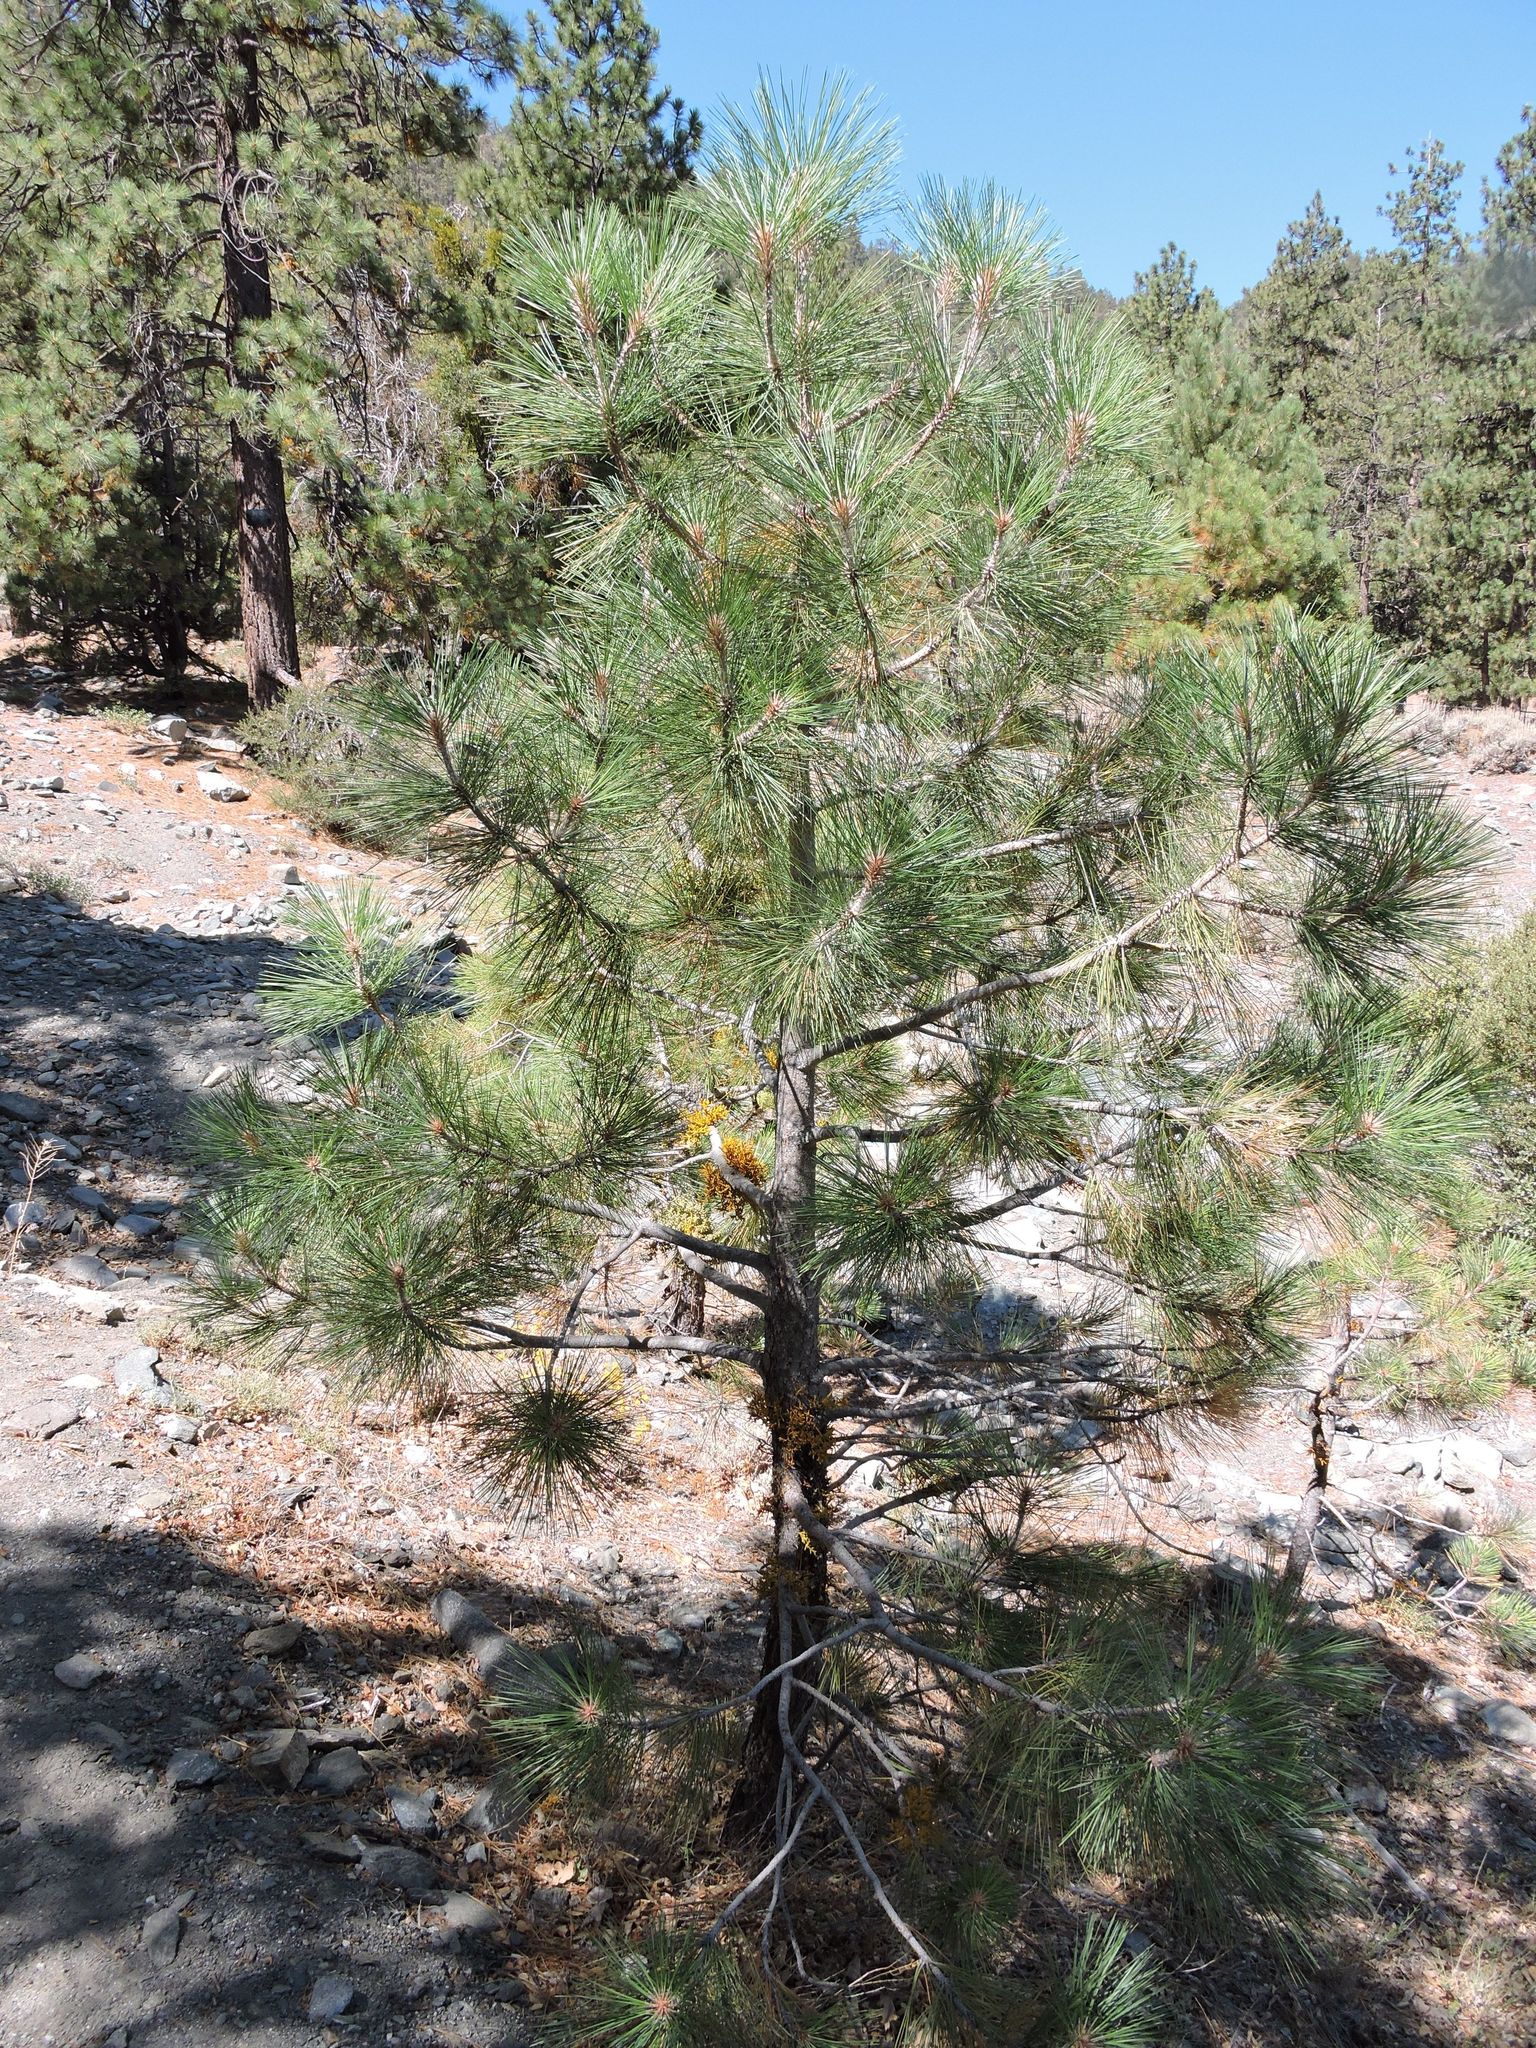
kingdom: Plantae
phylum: Tracheophyta
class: Magnoliopsida
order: Santalales
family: Viscaceae
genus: Arceuthobium
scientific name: Arceuthobium campylopodum
